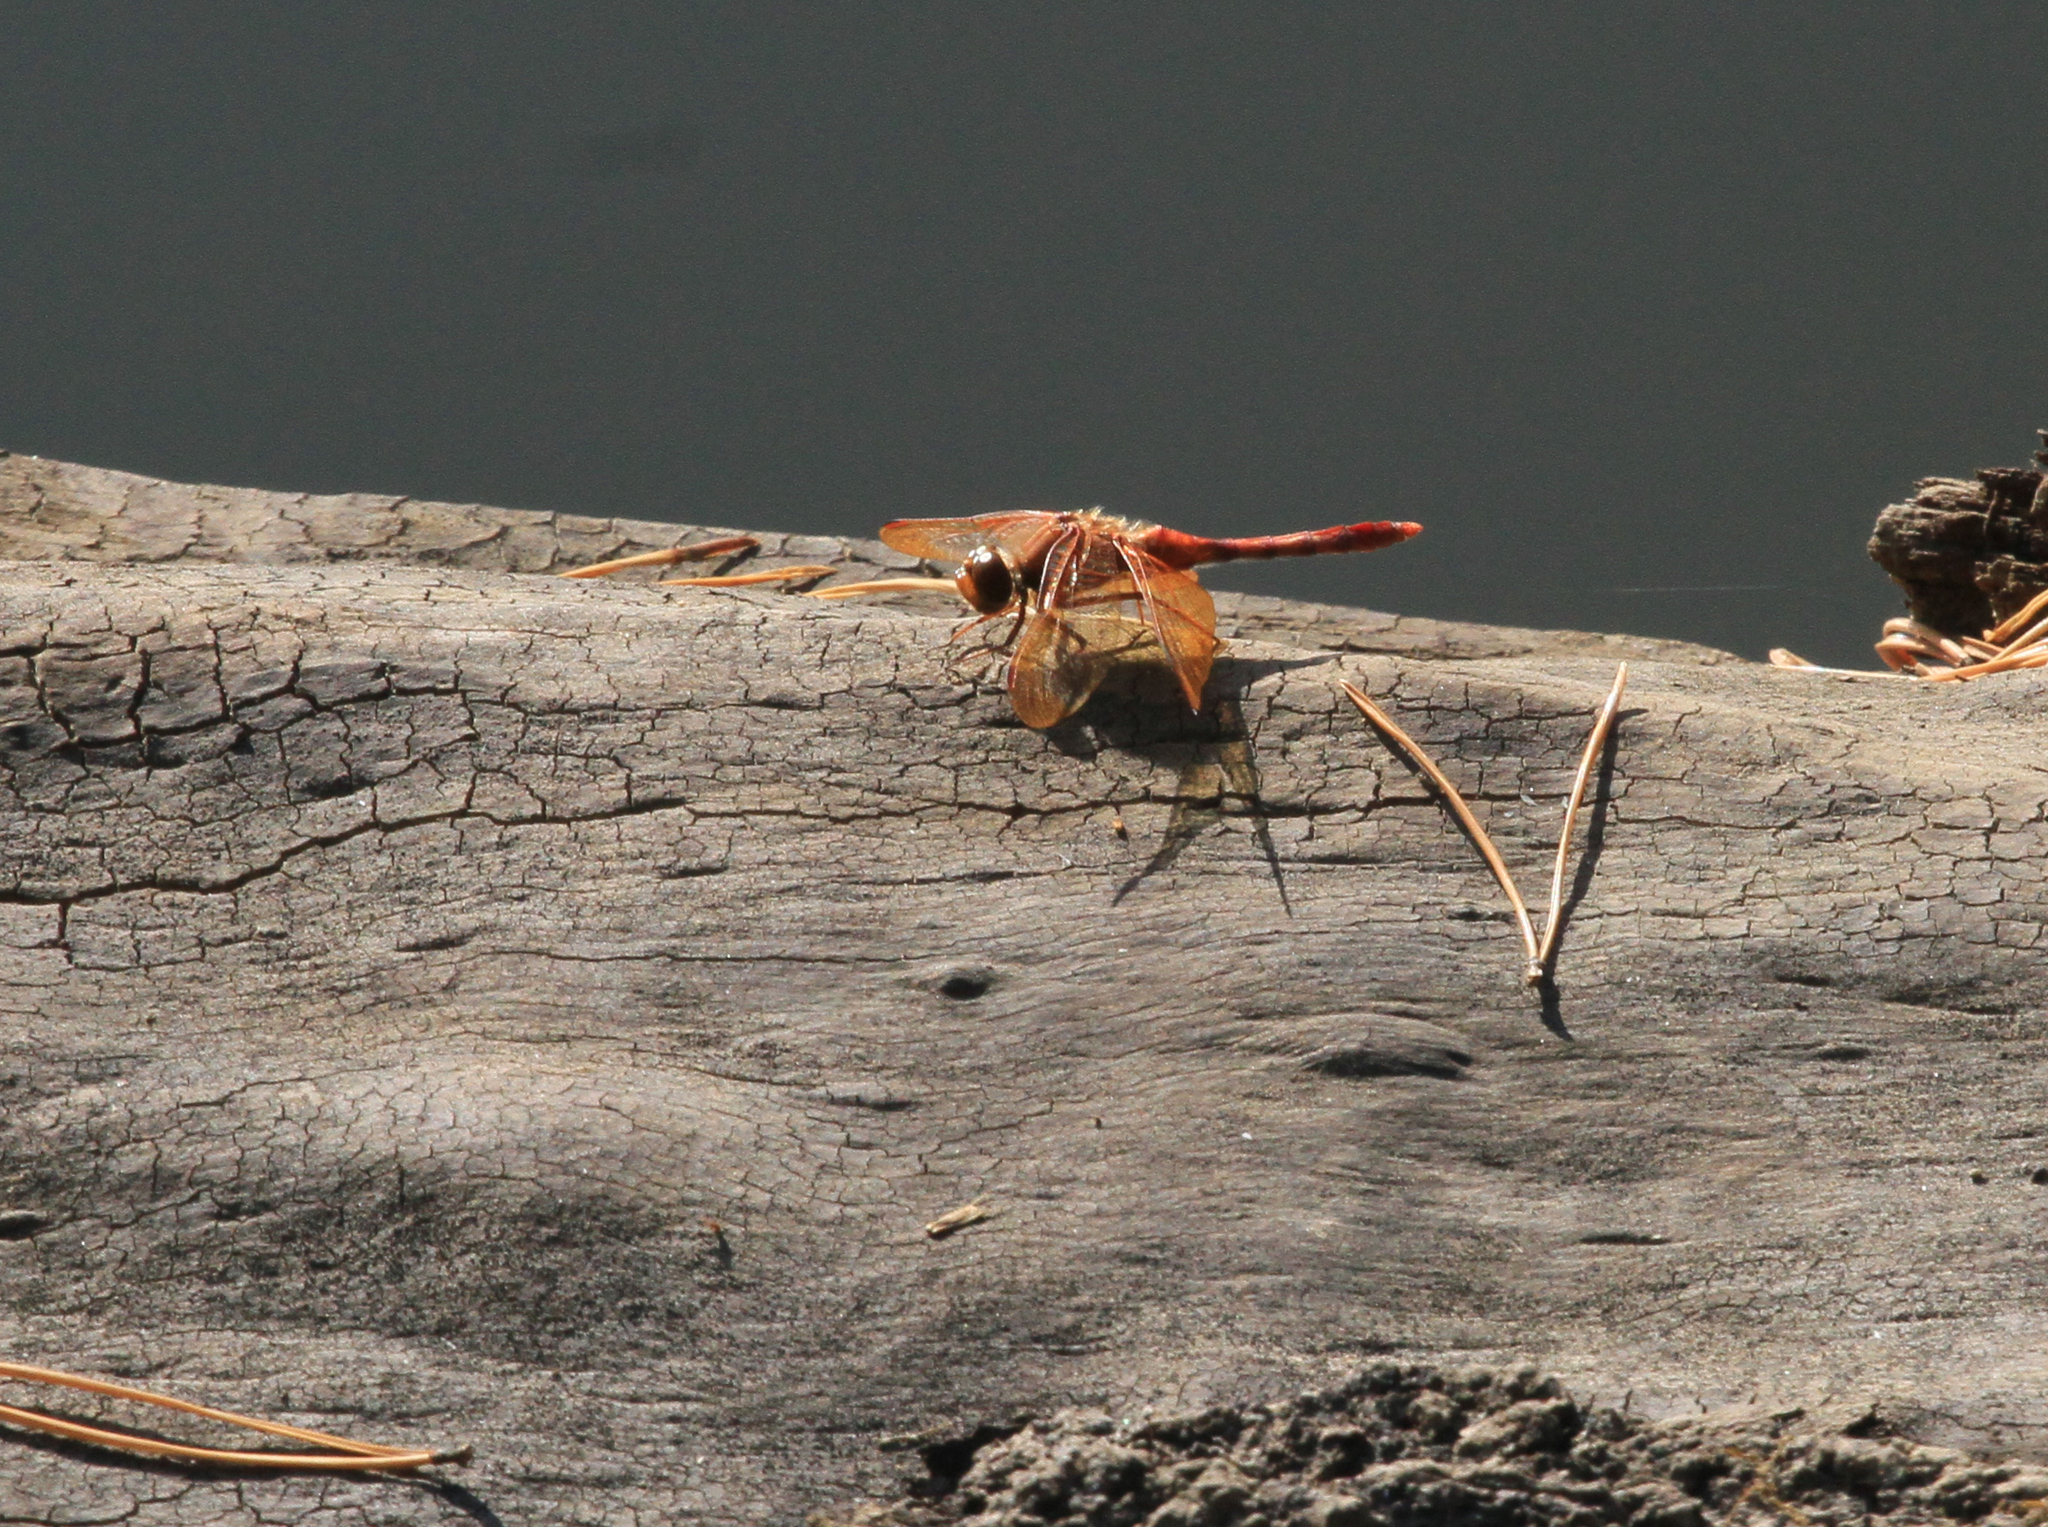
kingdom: Animalia
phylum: Arthropoda
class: Insecta
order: Odonata
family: Libellulidae
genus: Sympetrum
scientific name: Sympetrum croceolum
